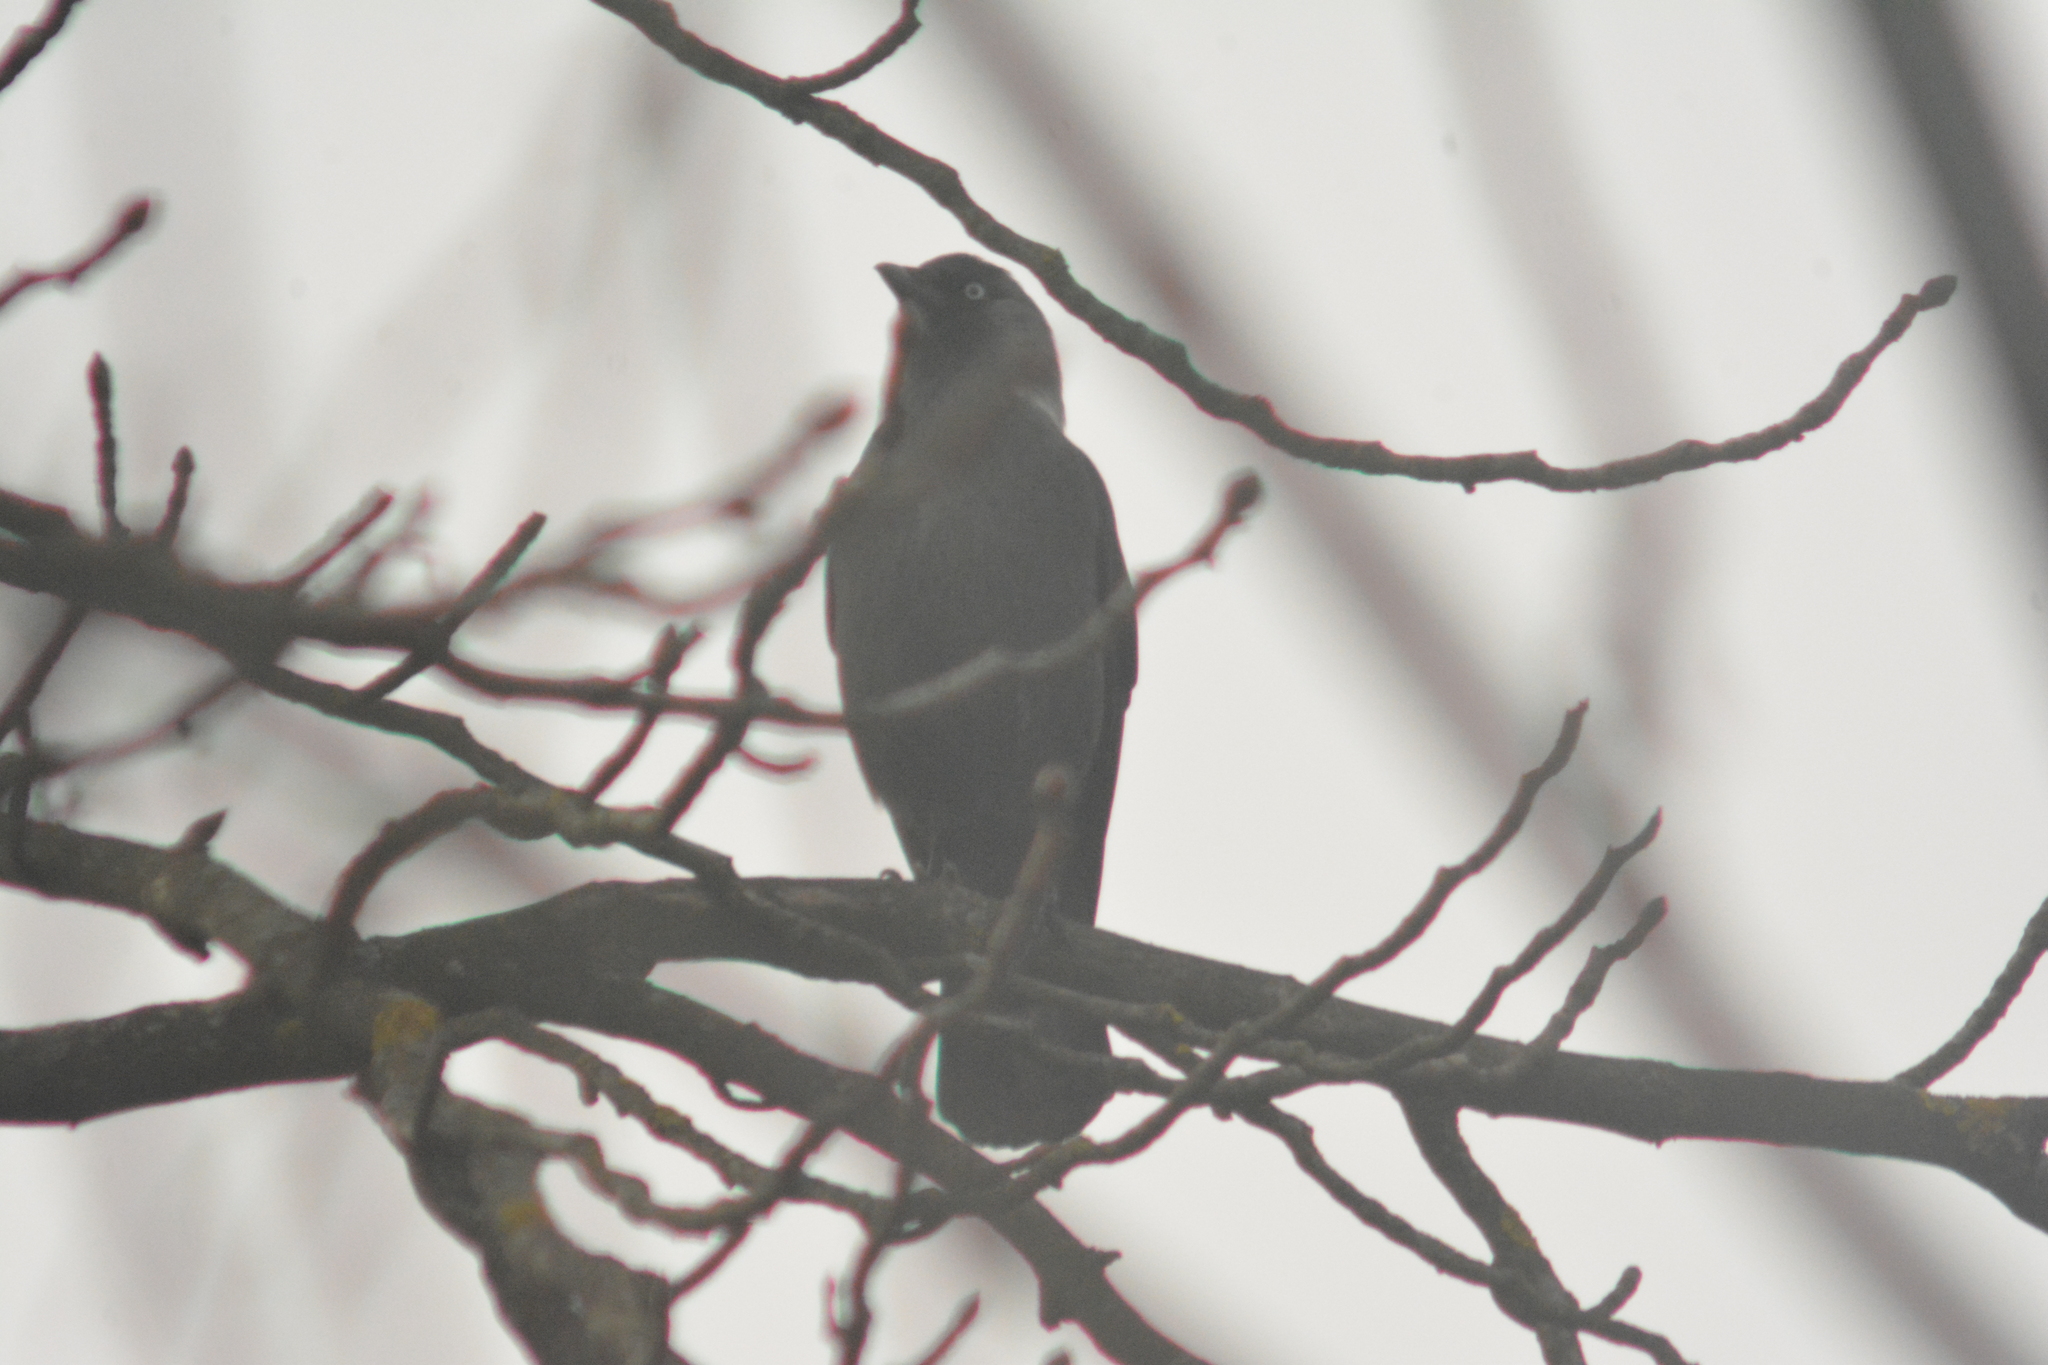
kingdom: Animalia
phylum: Chordata
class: Aves
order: Passeriformes
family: Corvidae
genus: Coloeus
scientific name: Coloeus monedula
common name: Western jackdaw
